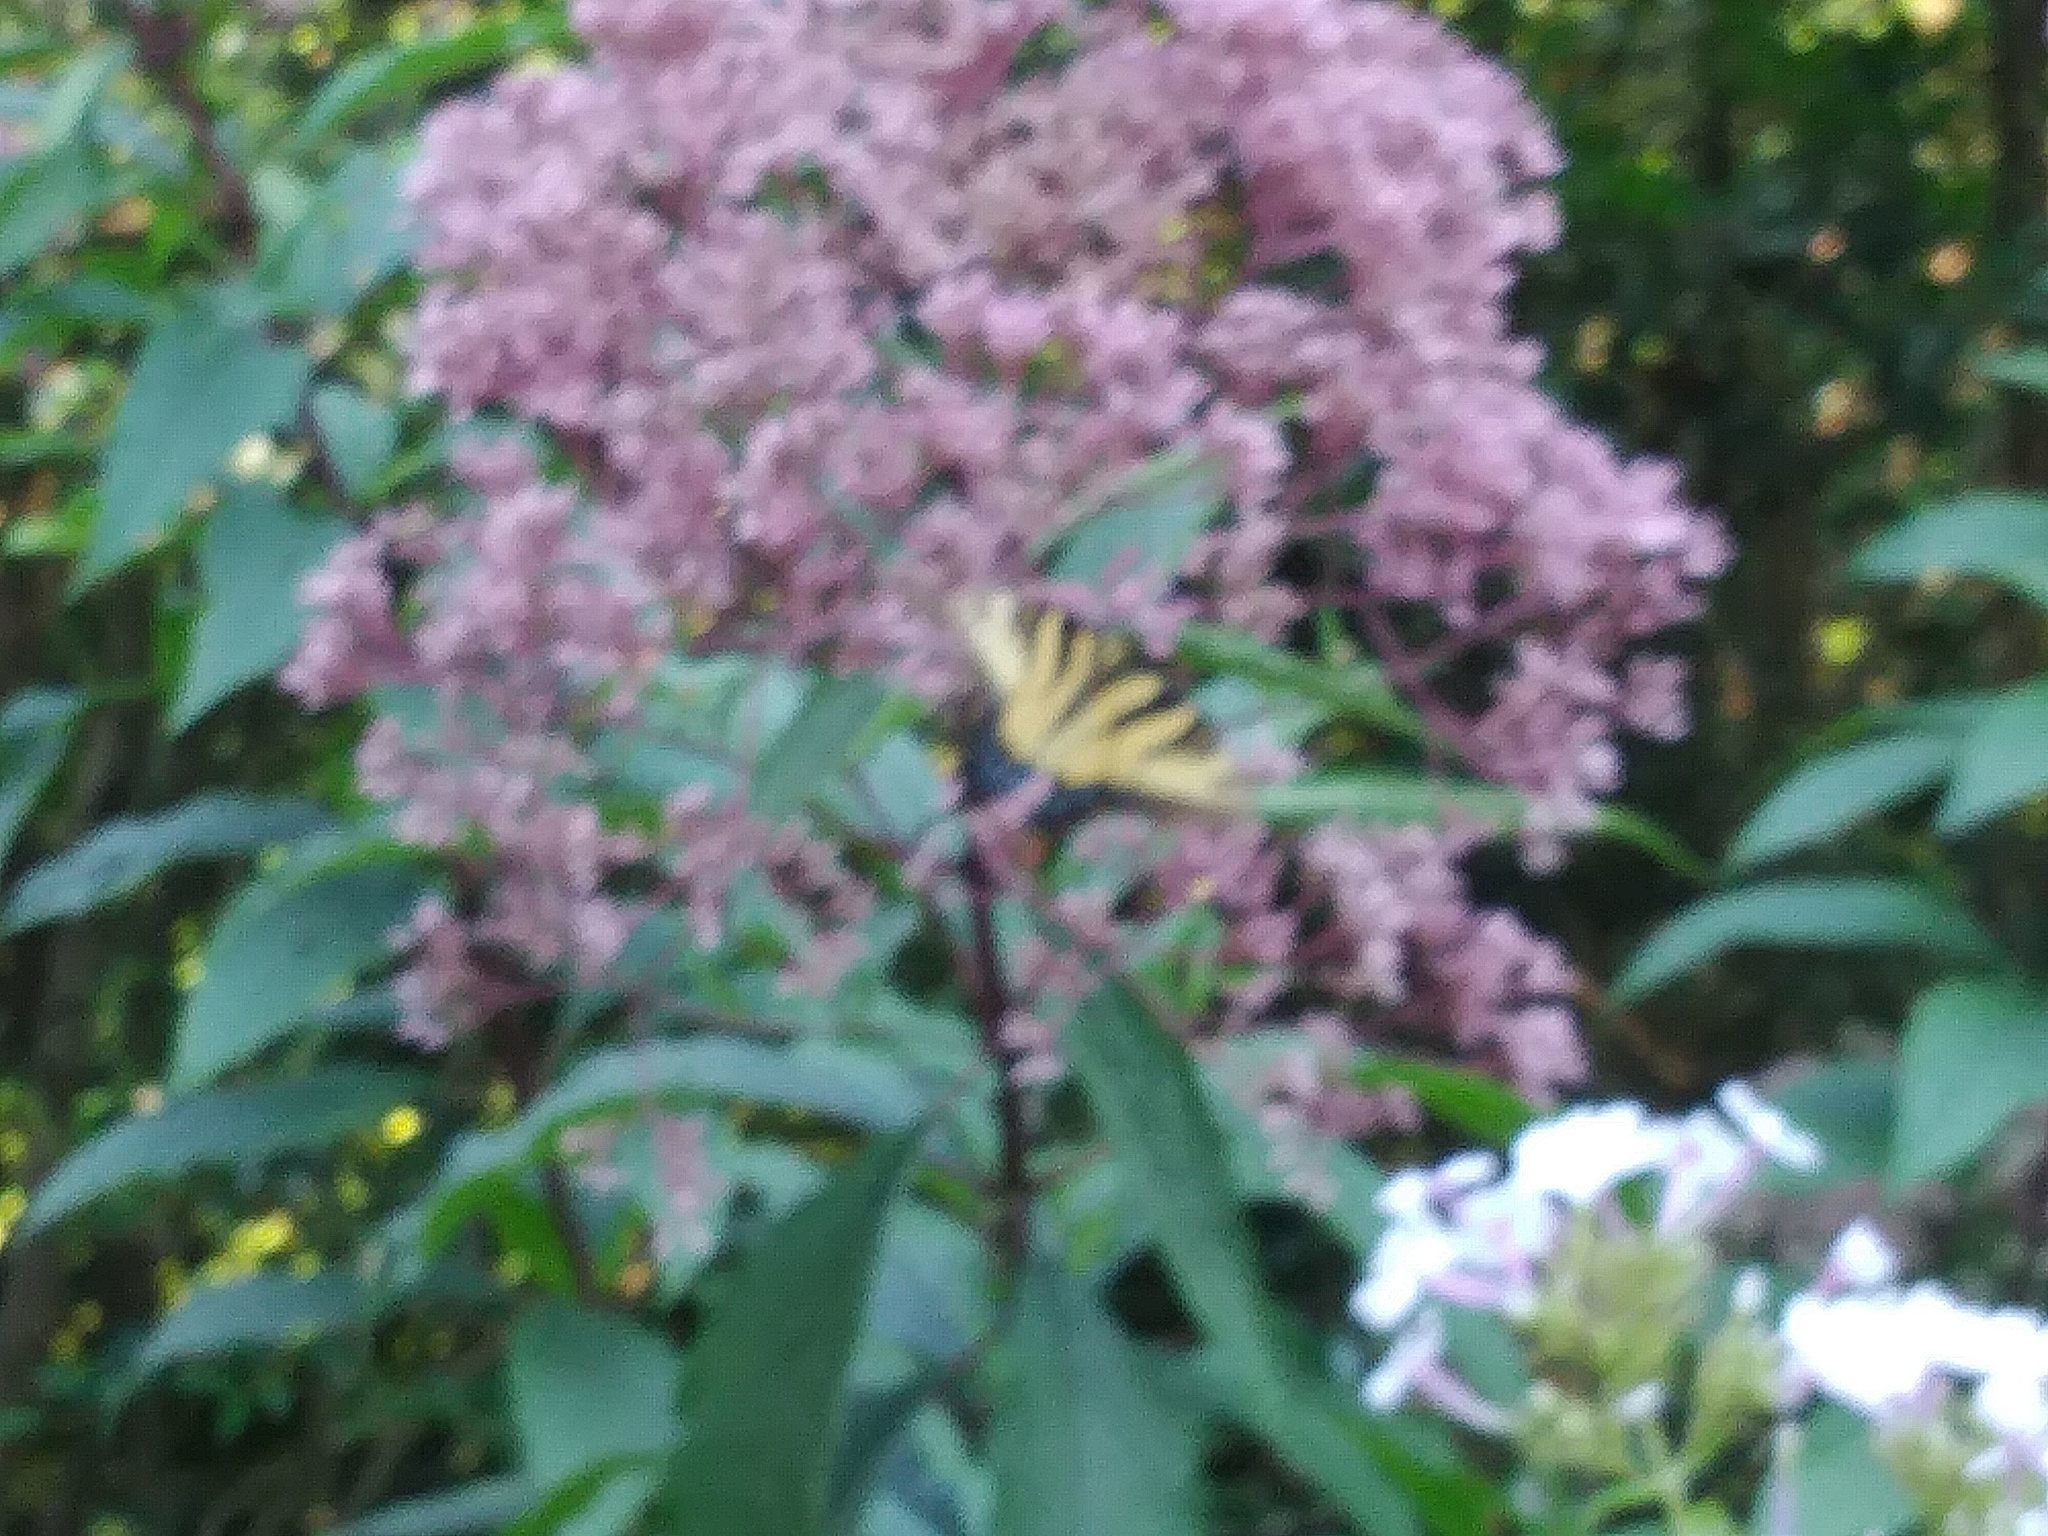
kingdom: Animalia
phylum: Arthropoda
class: Insecta
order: Lepidoptera
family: Papilionidae
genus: Papilio
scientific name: Papilio glaucus
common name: Tiger swallowtail
